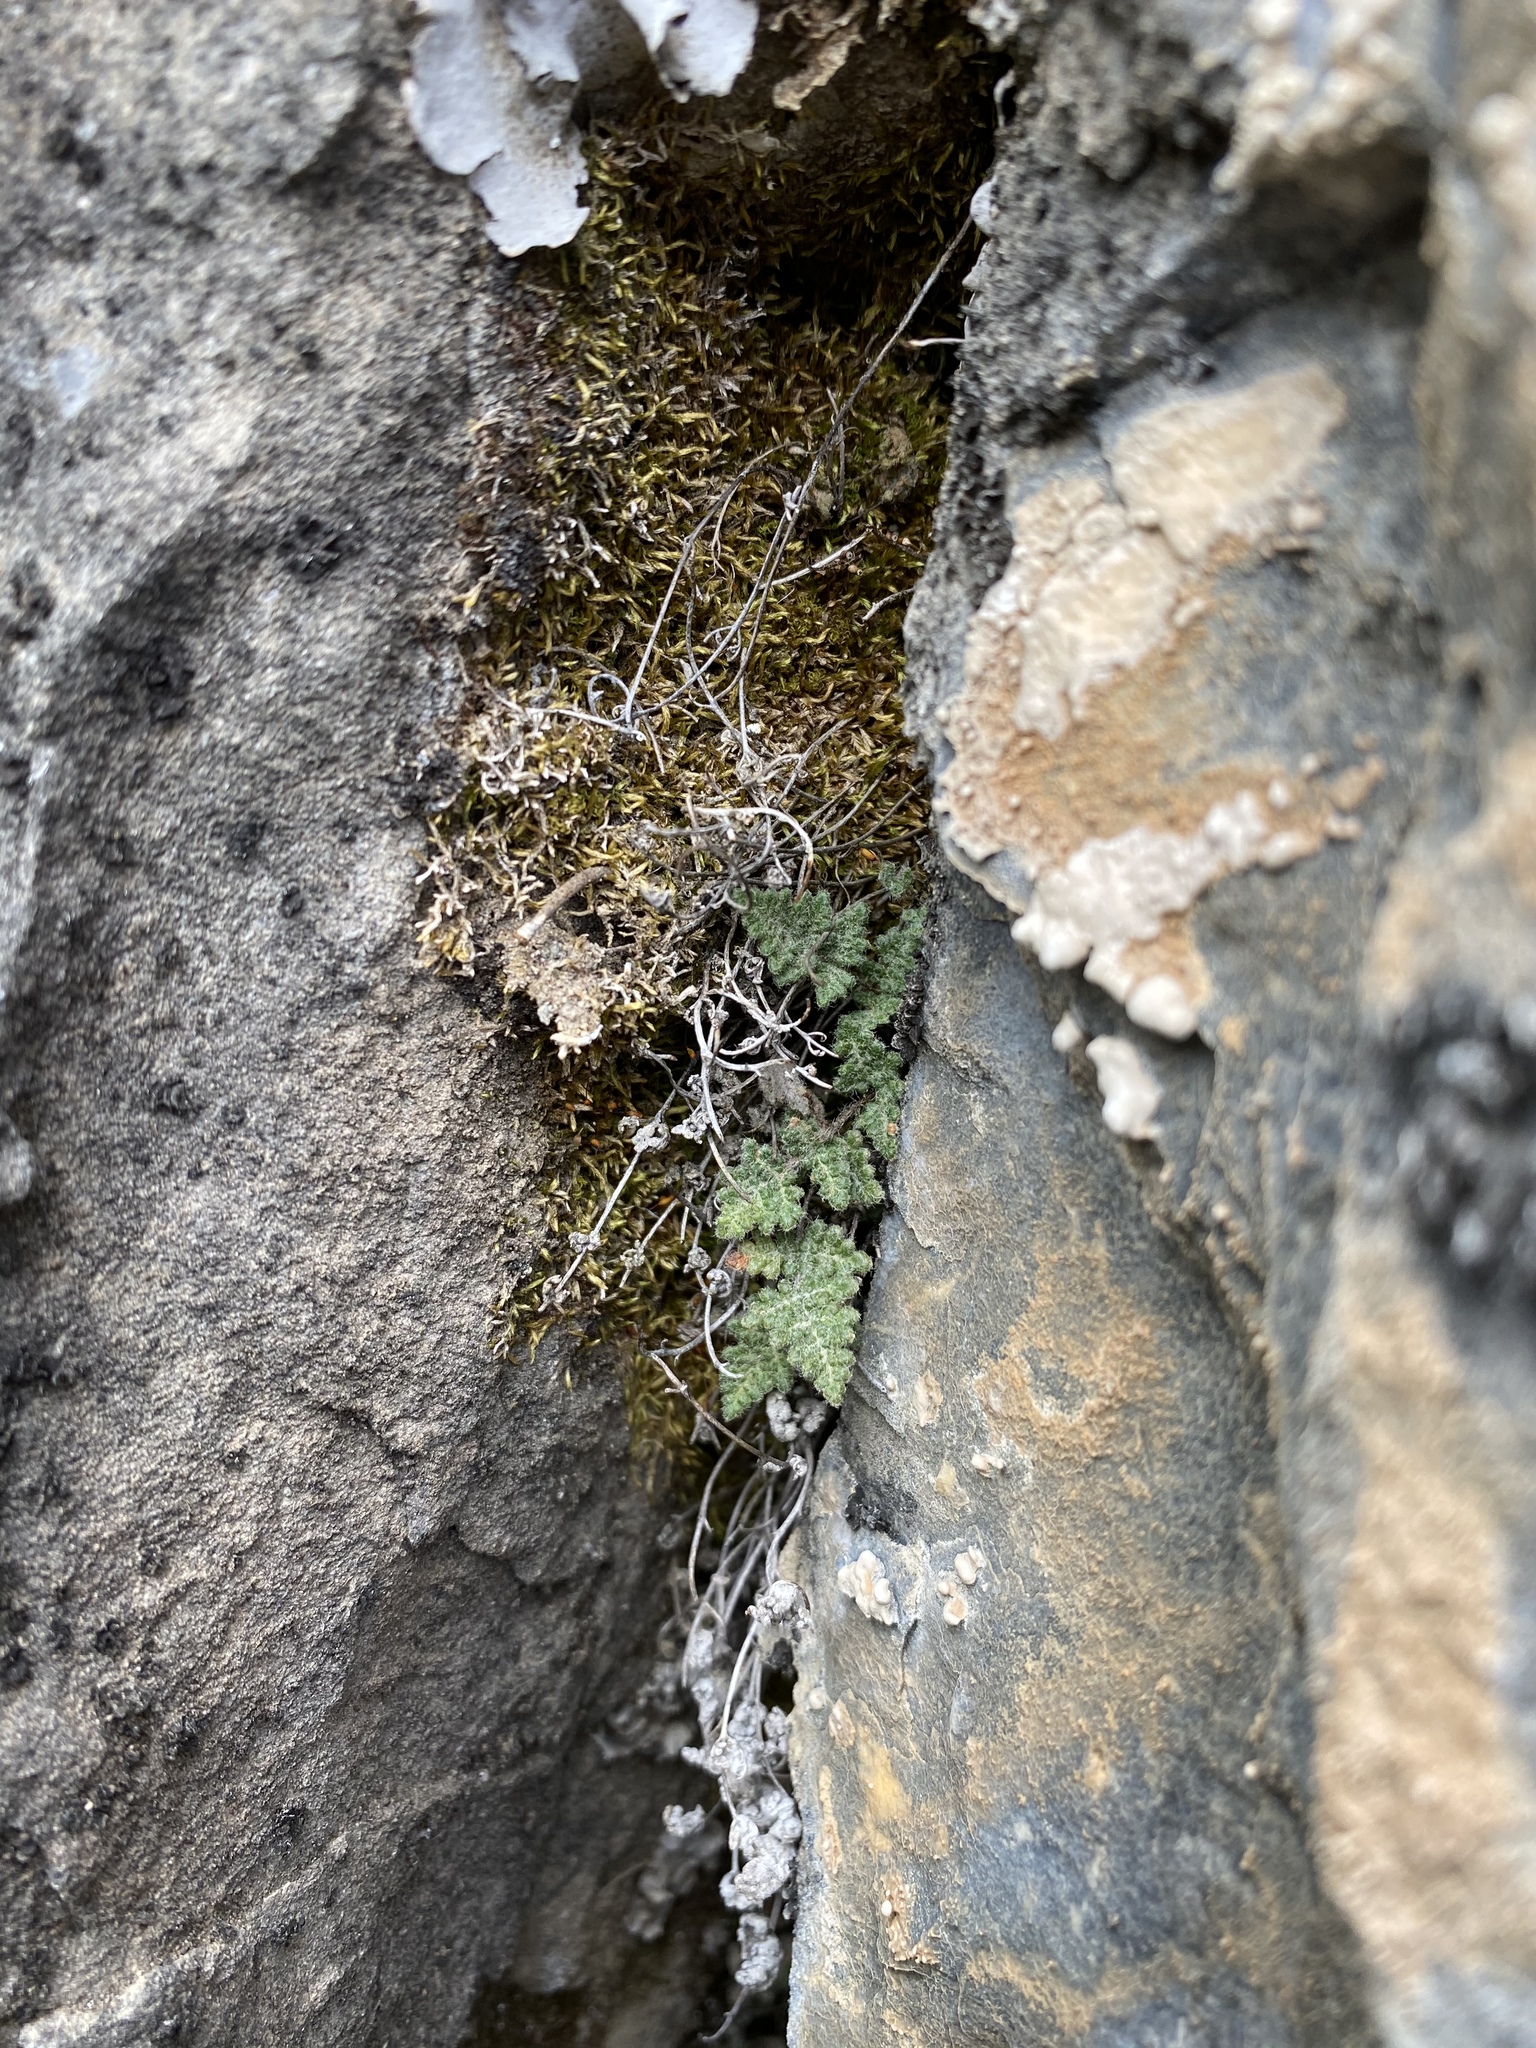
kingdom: Plantae
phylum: Tracheophyta
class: Polypodiopsida
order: Polypodiales
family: Pteridaceae
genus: Myriopteris
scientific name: Myriopteris gracilis
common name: Fee's lip fern
